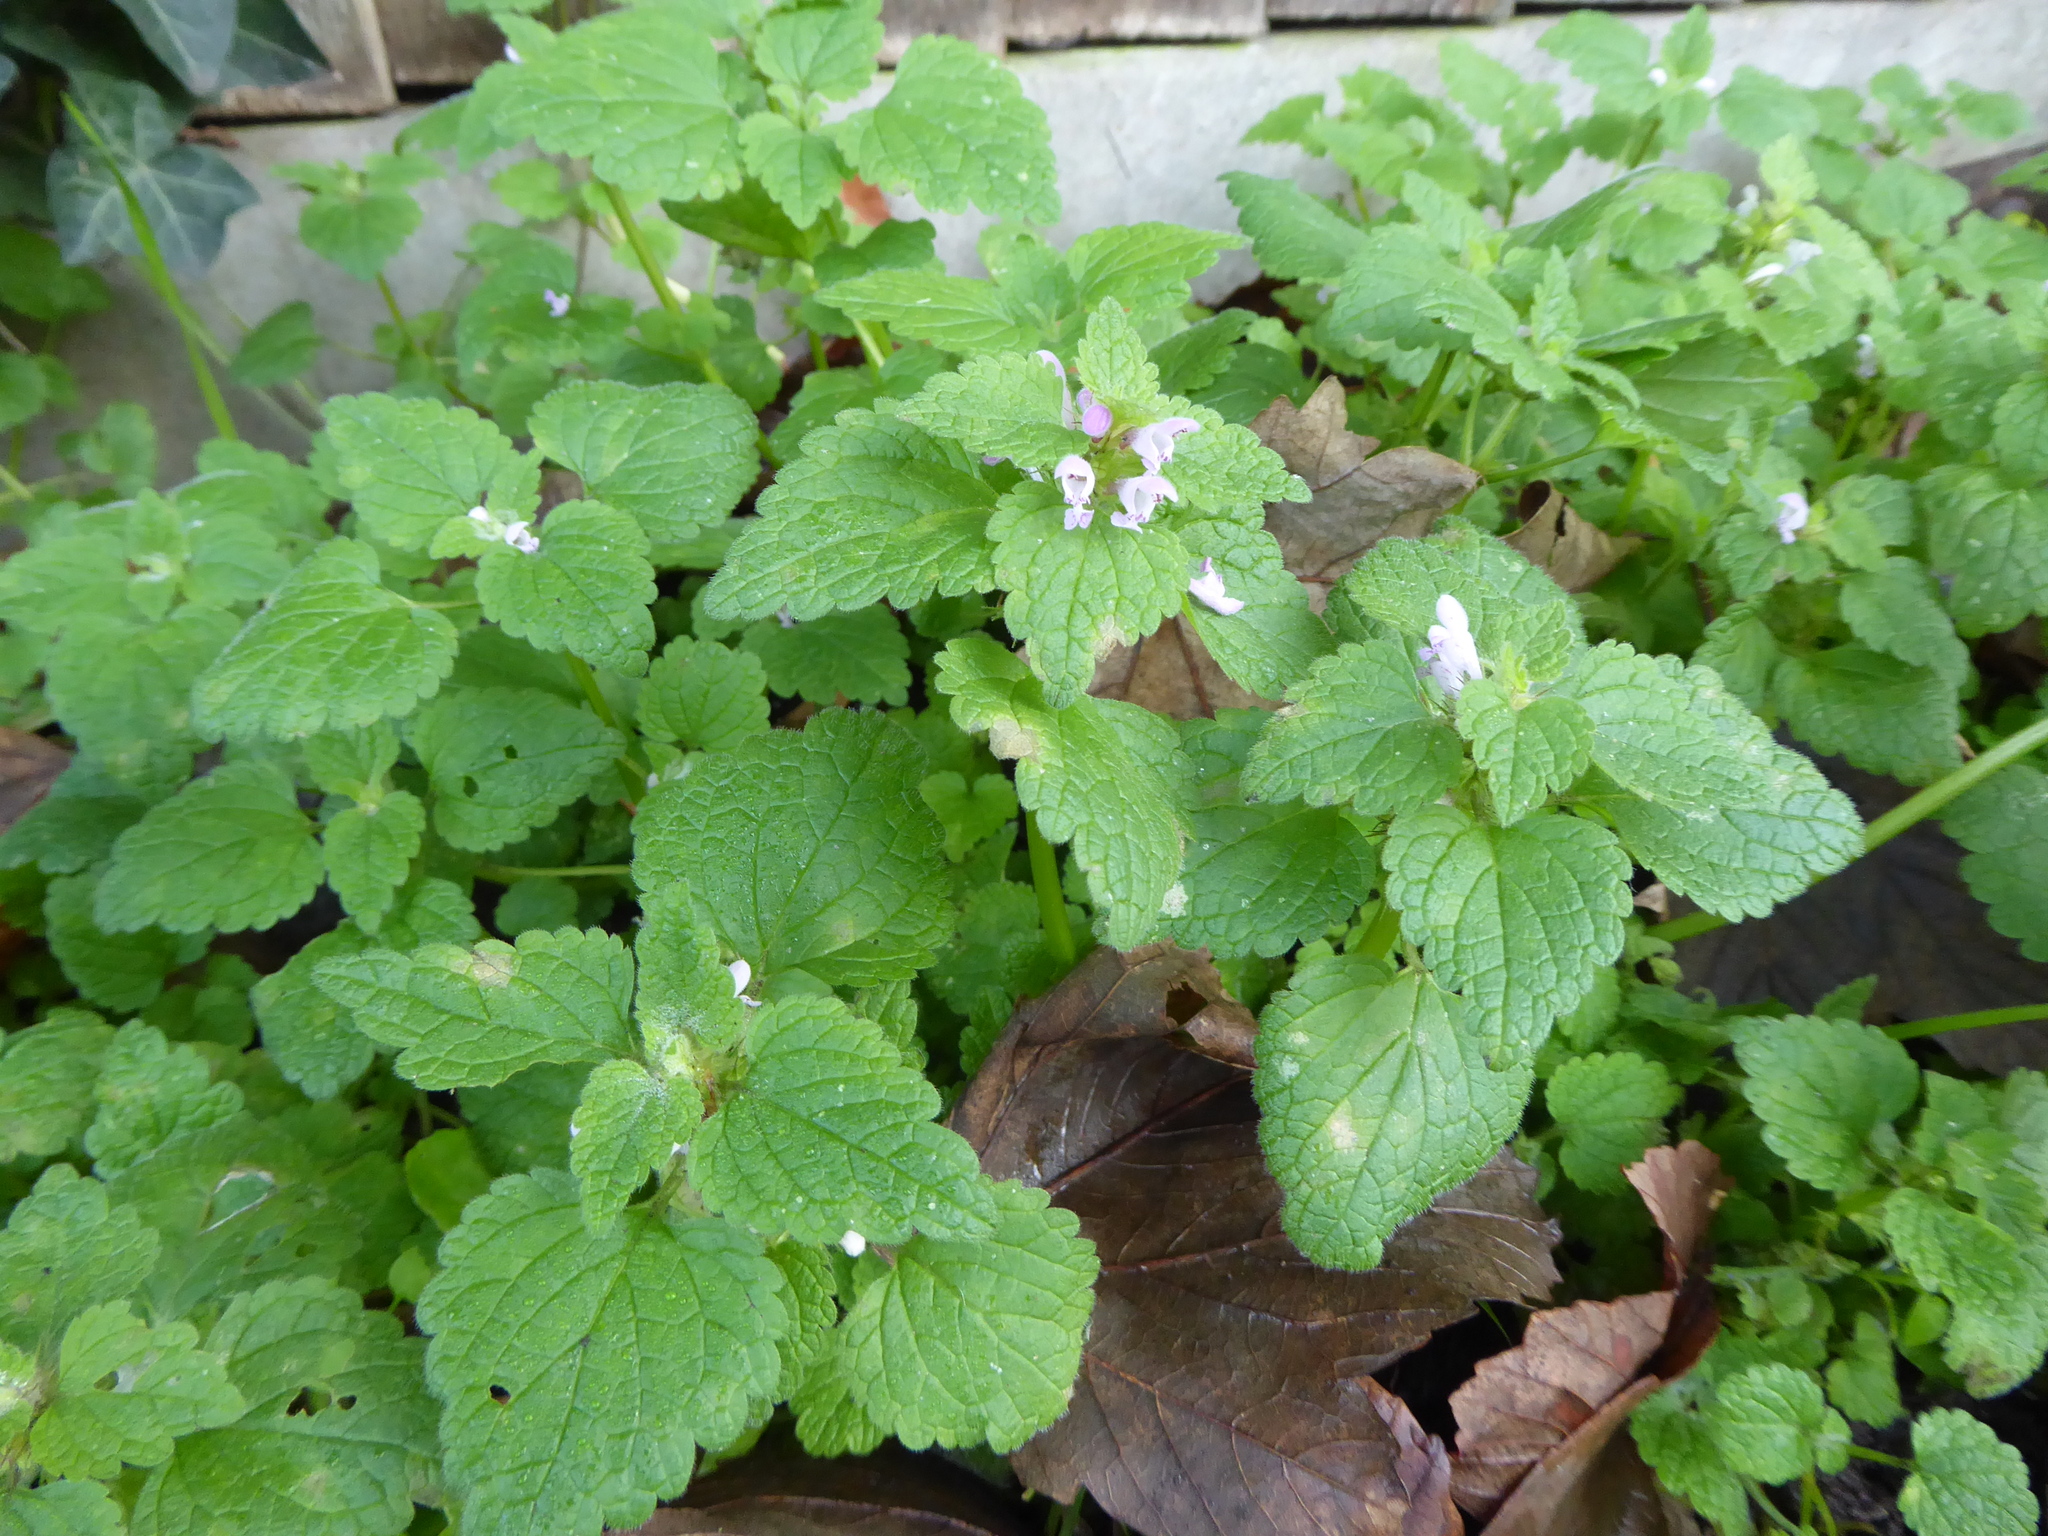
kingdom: Plantae
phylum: Tracheophyta
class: Magnoliopsida
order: Lamiales
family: Lamiaceae
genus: Lamium
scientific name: Lamium purpureum
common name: Red dead-nettle
